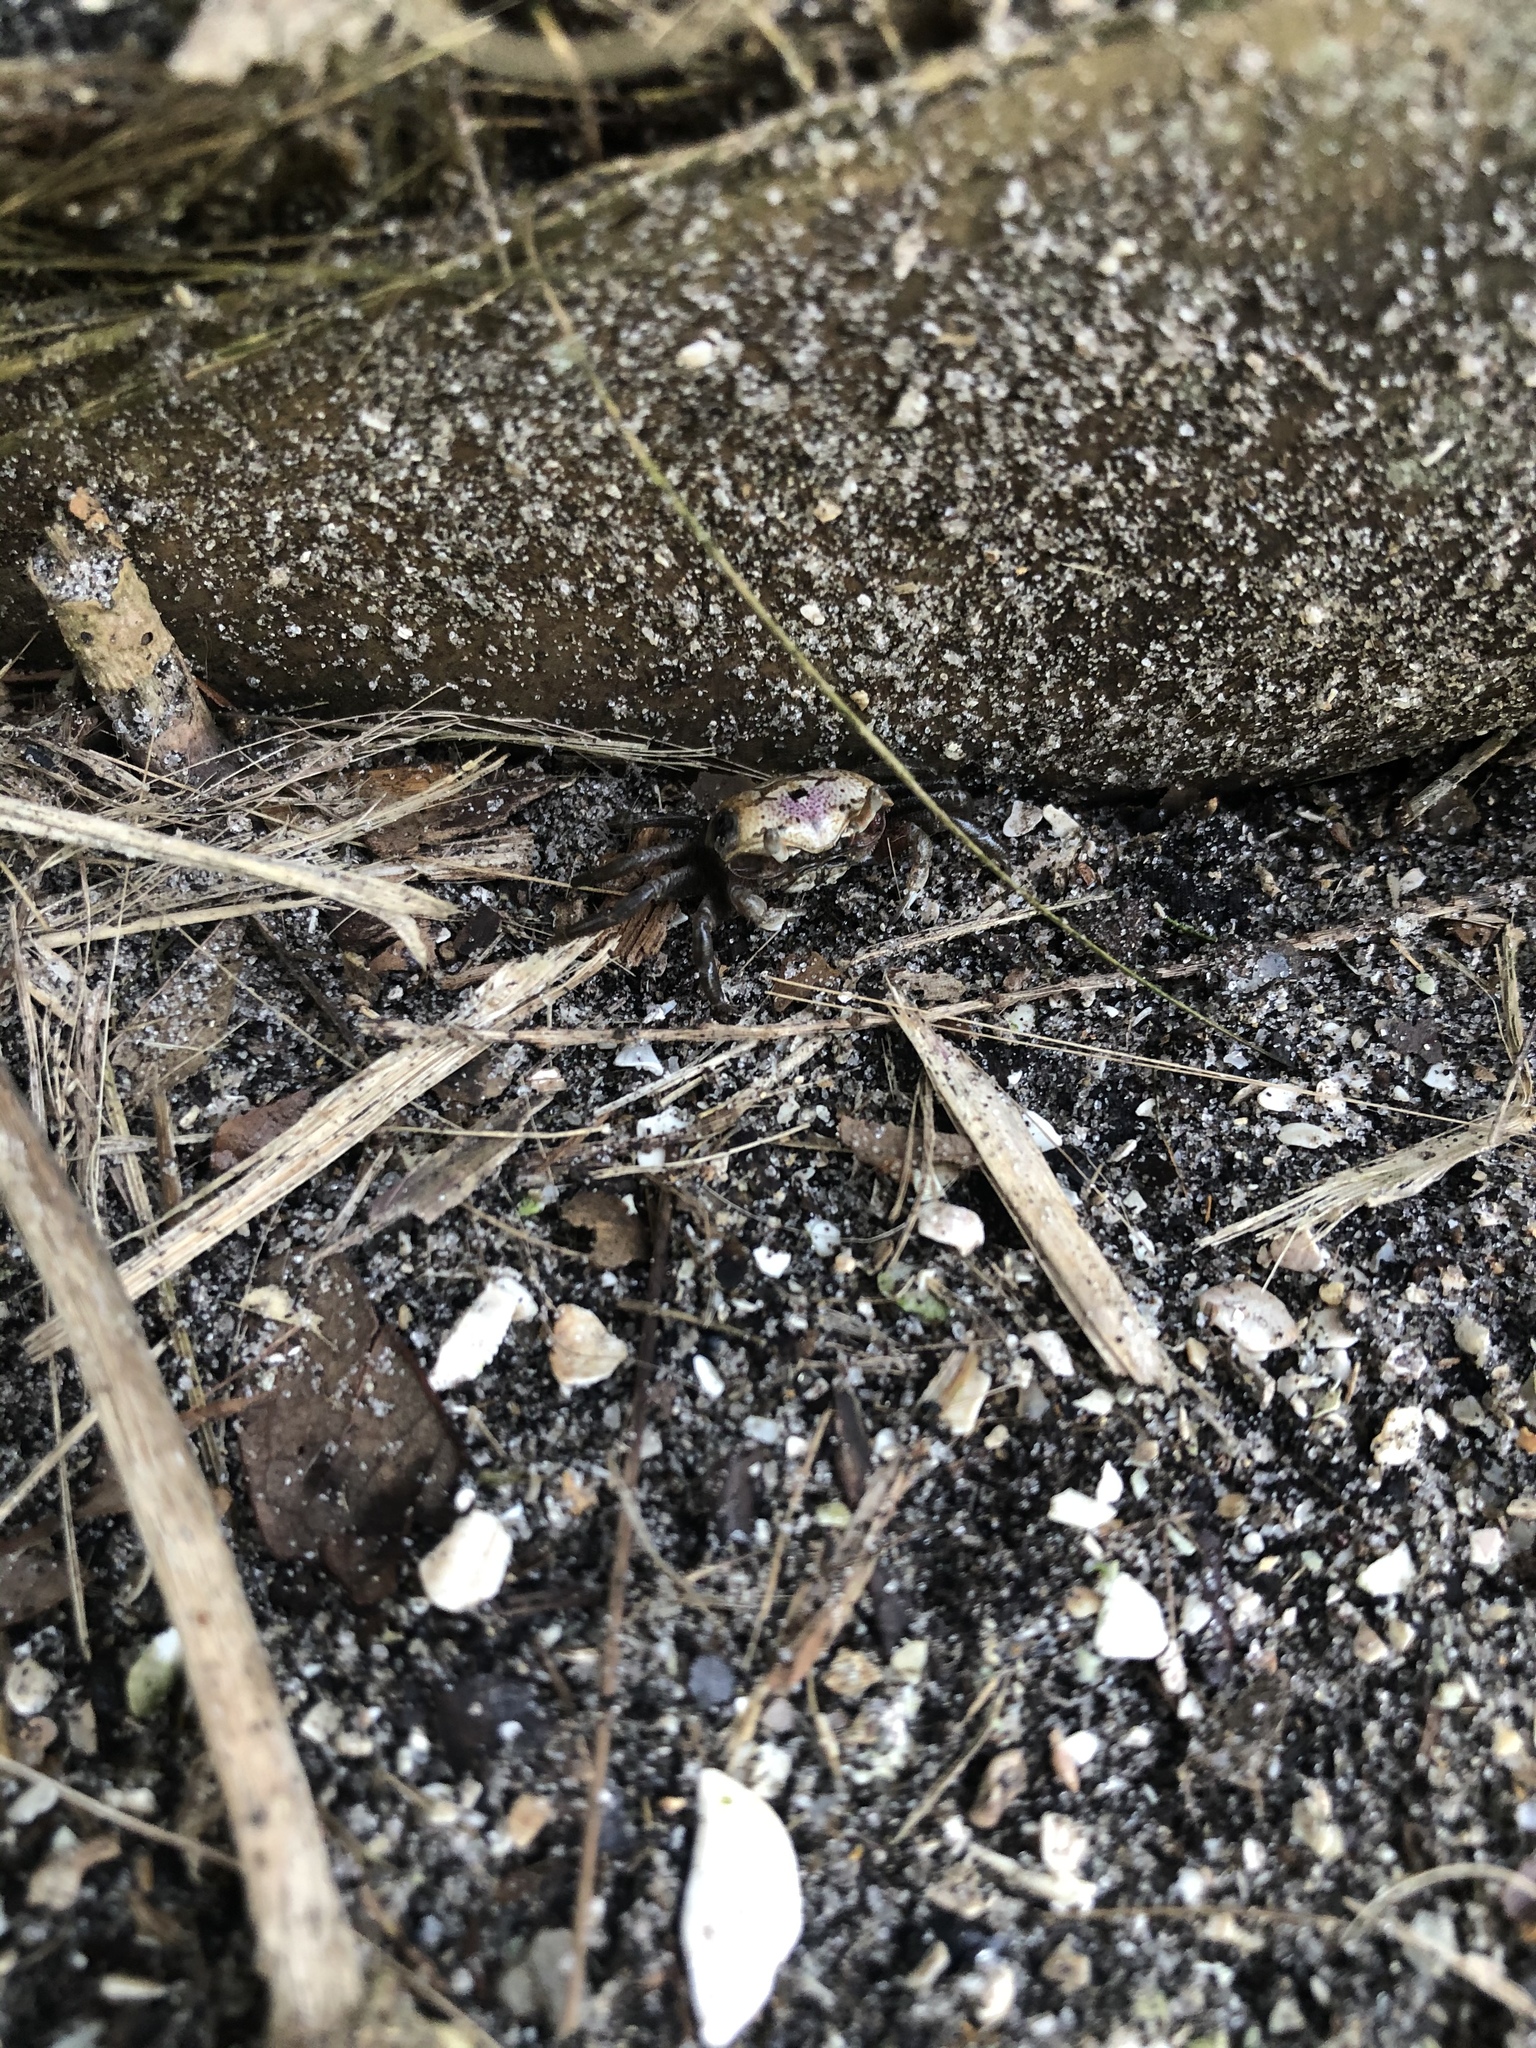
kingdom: Animalia
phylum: Arthropoda
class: Malacostraca
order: Decapoda
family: Ocypodidae
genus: Leptuca
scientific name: Leptuca pugilator
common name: Atlantic sand fiddler crab
